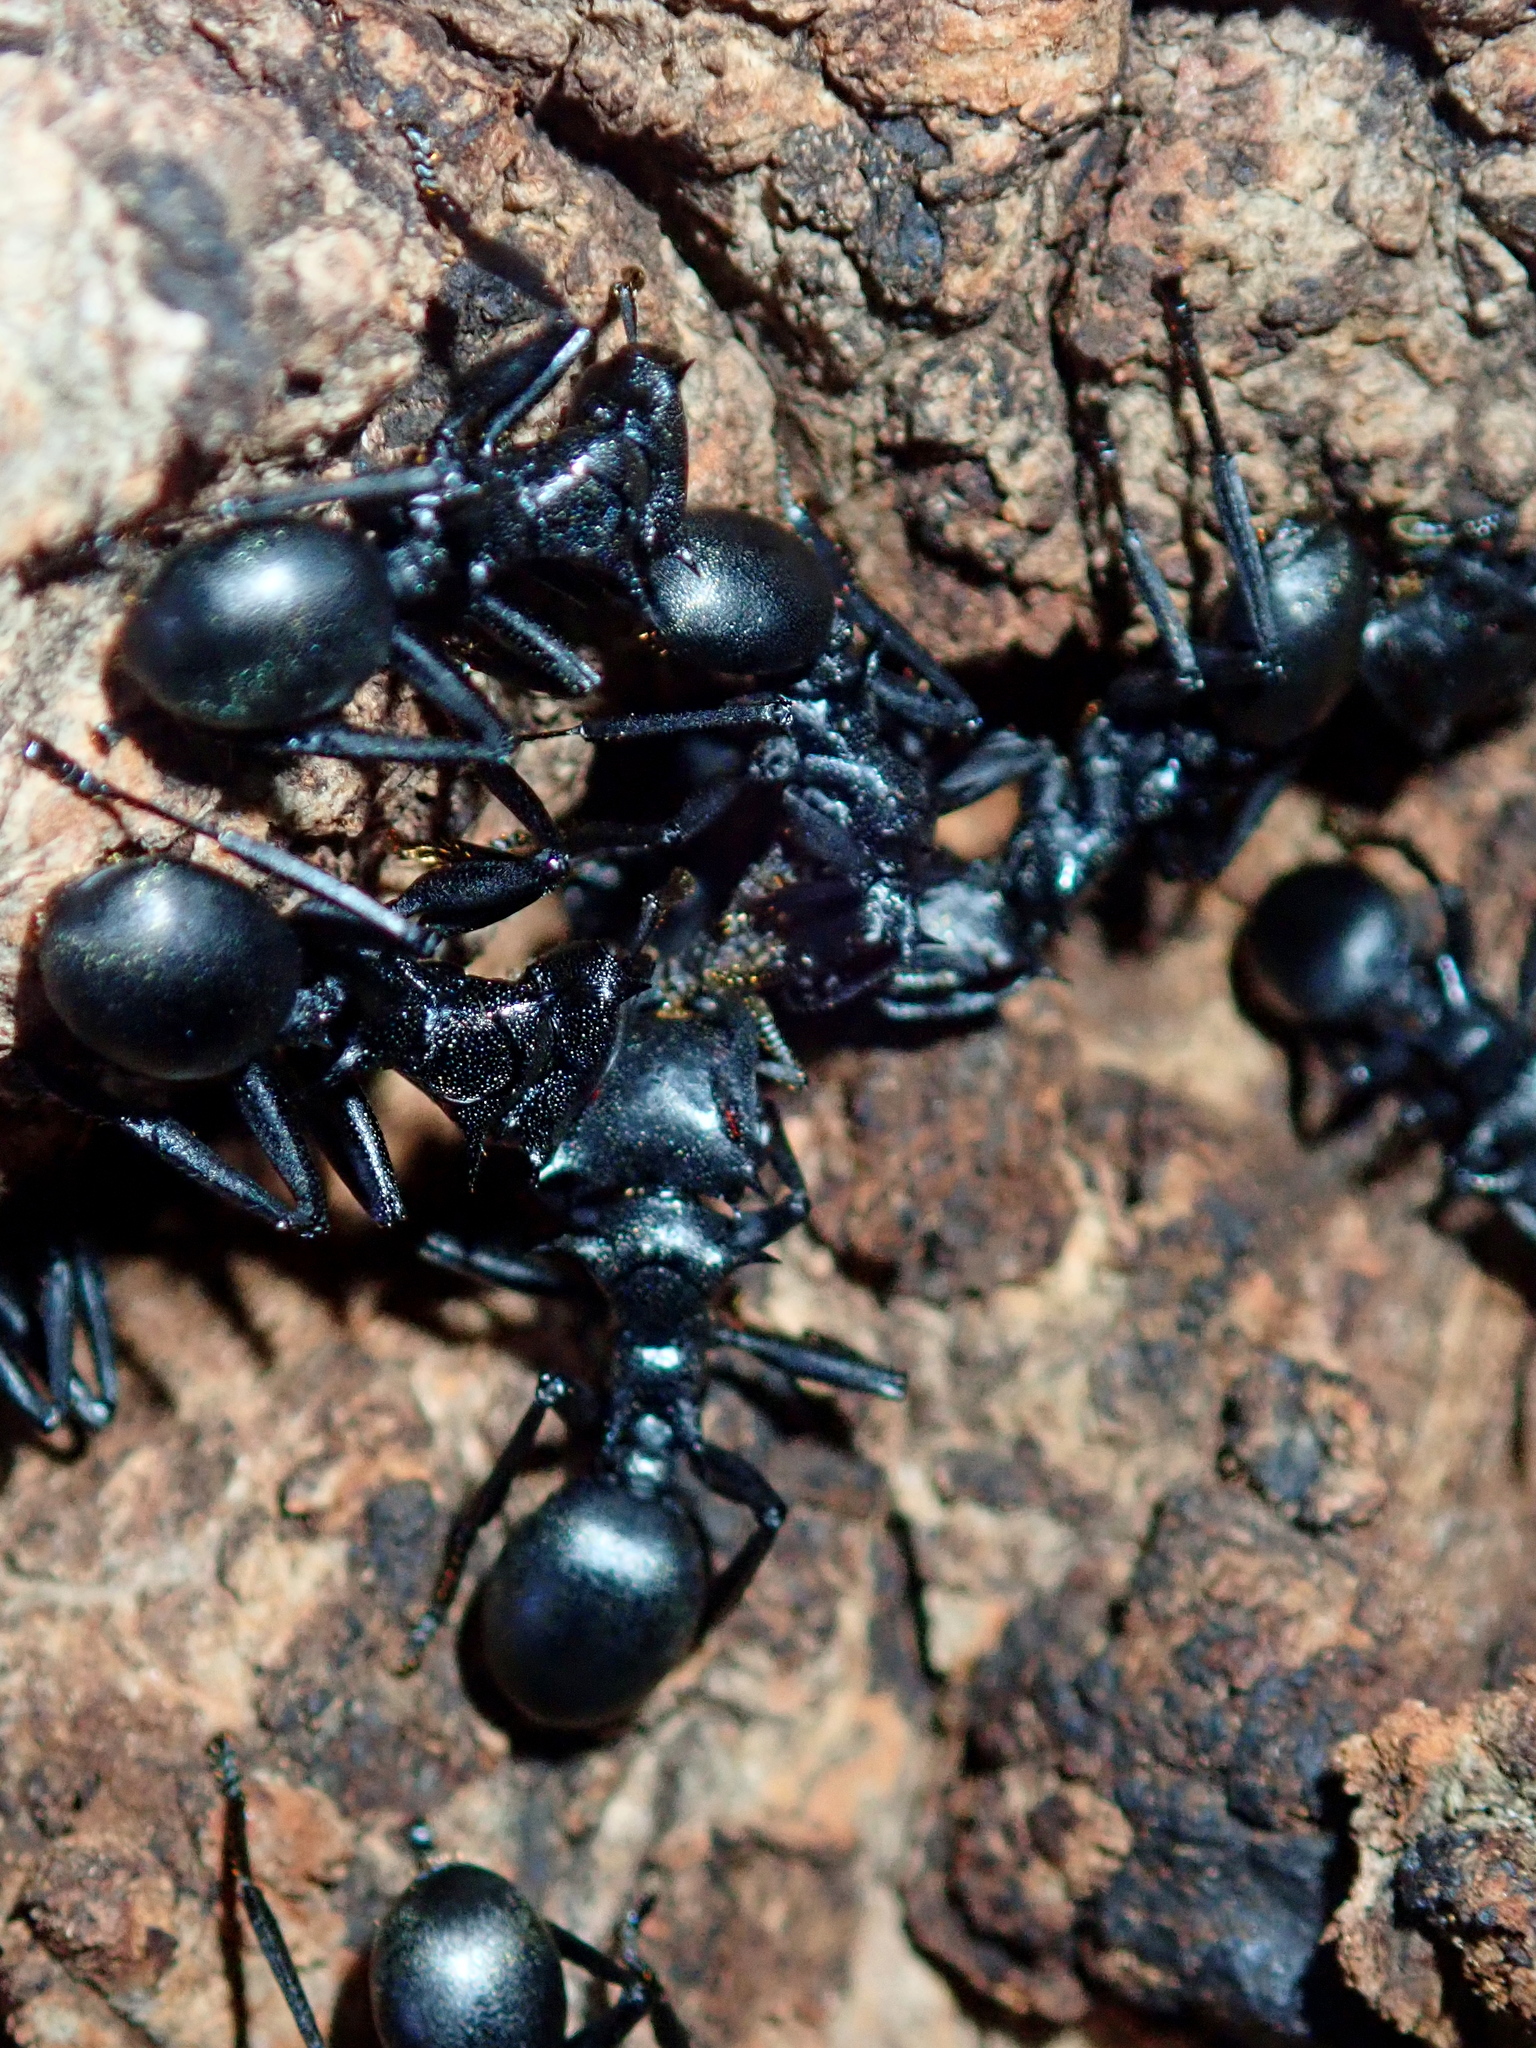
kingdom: Animalia
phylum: Arthropoda
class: Insecta
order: Hymenoptera
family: Formicidae
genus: Cephalotes
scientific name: Cephalotes atratus
